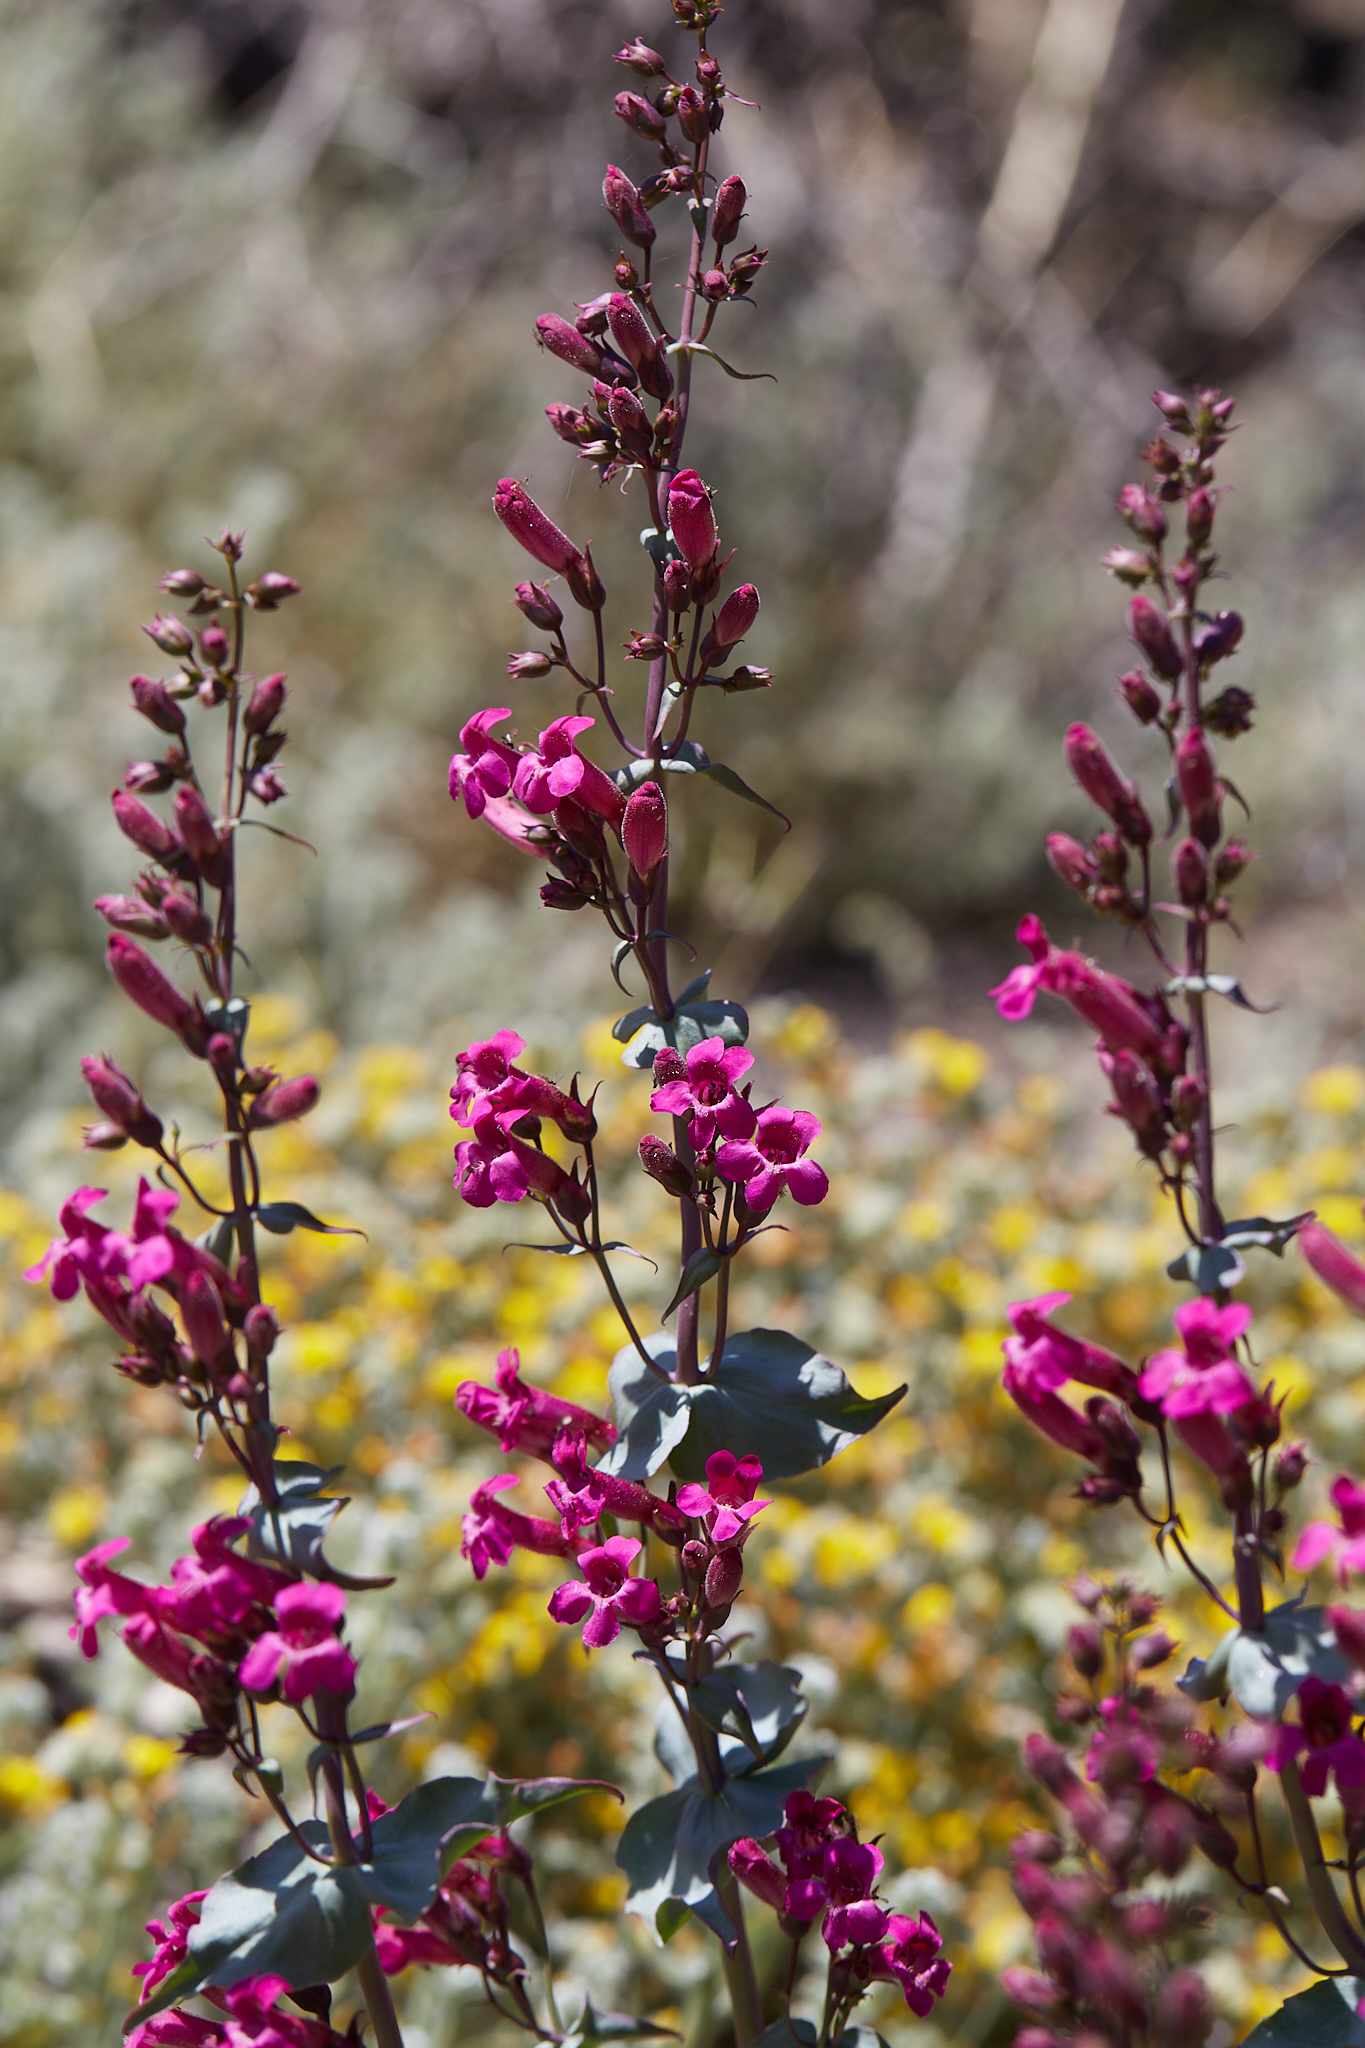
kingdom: Plantae
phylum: Tracheophyta
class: Magnoliopsida
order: Lamiales
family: Plantaginaceae
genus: Penstemon
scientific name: Penstemon clevelandii
